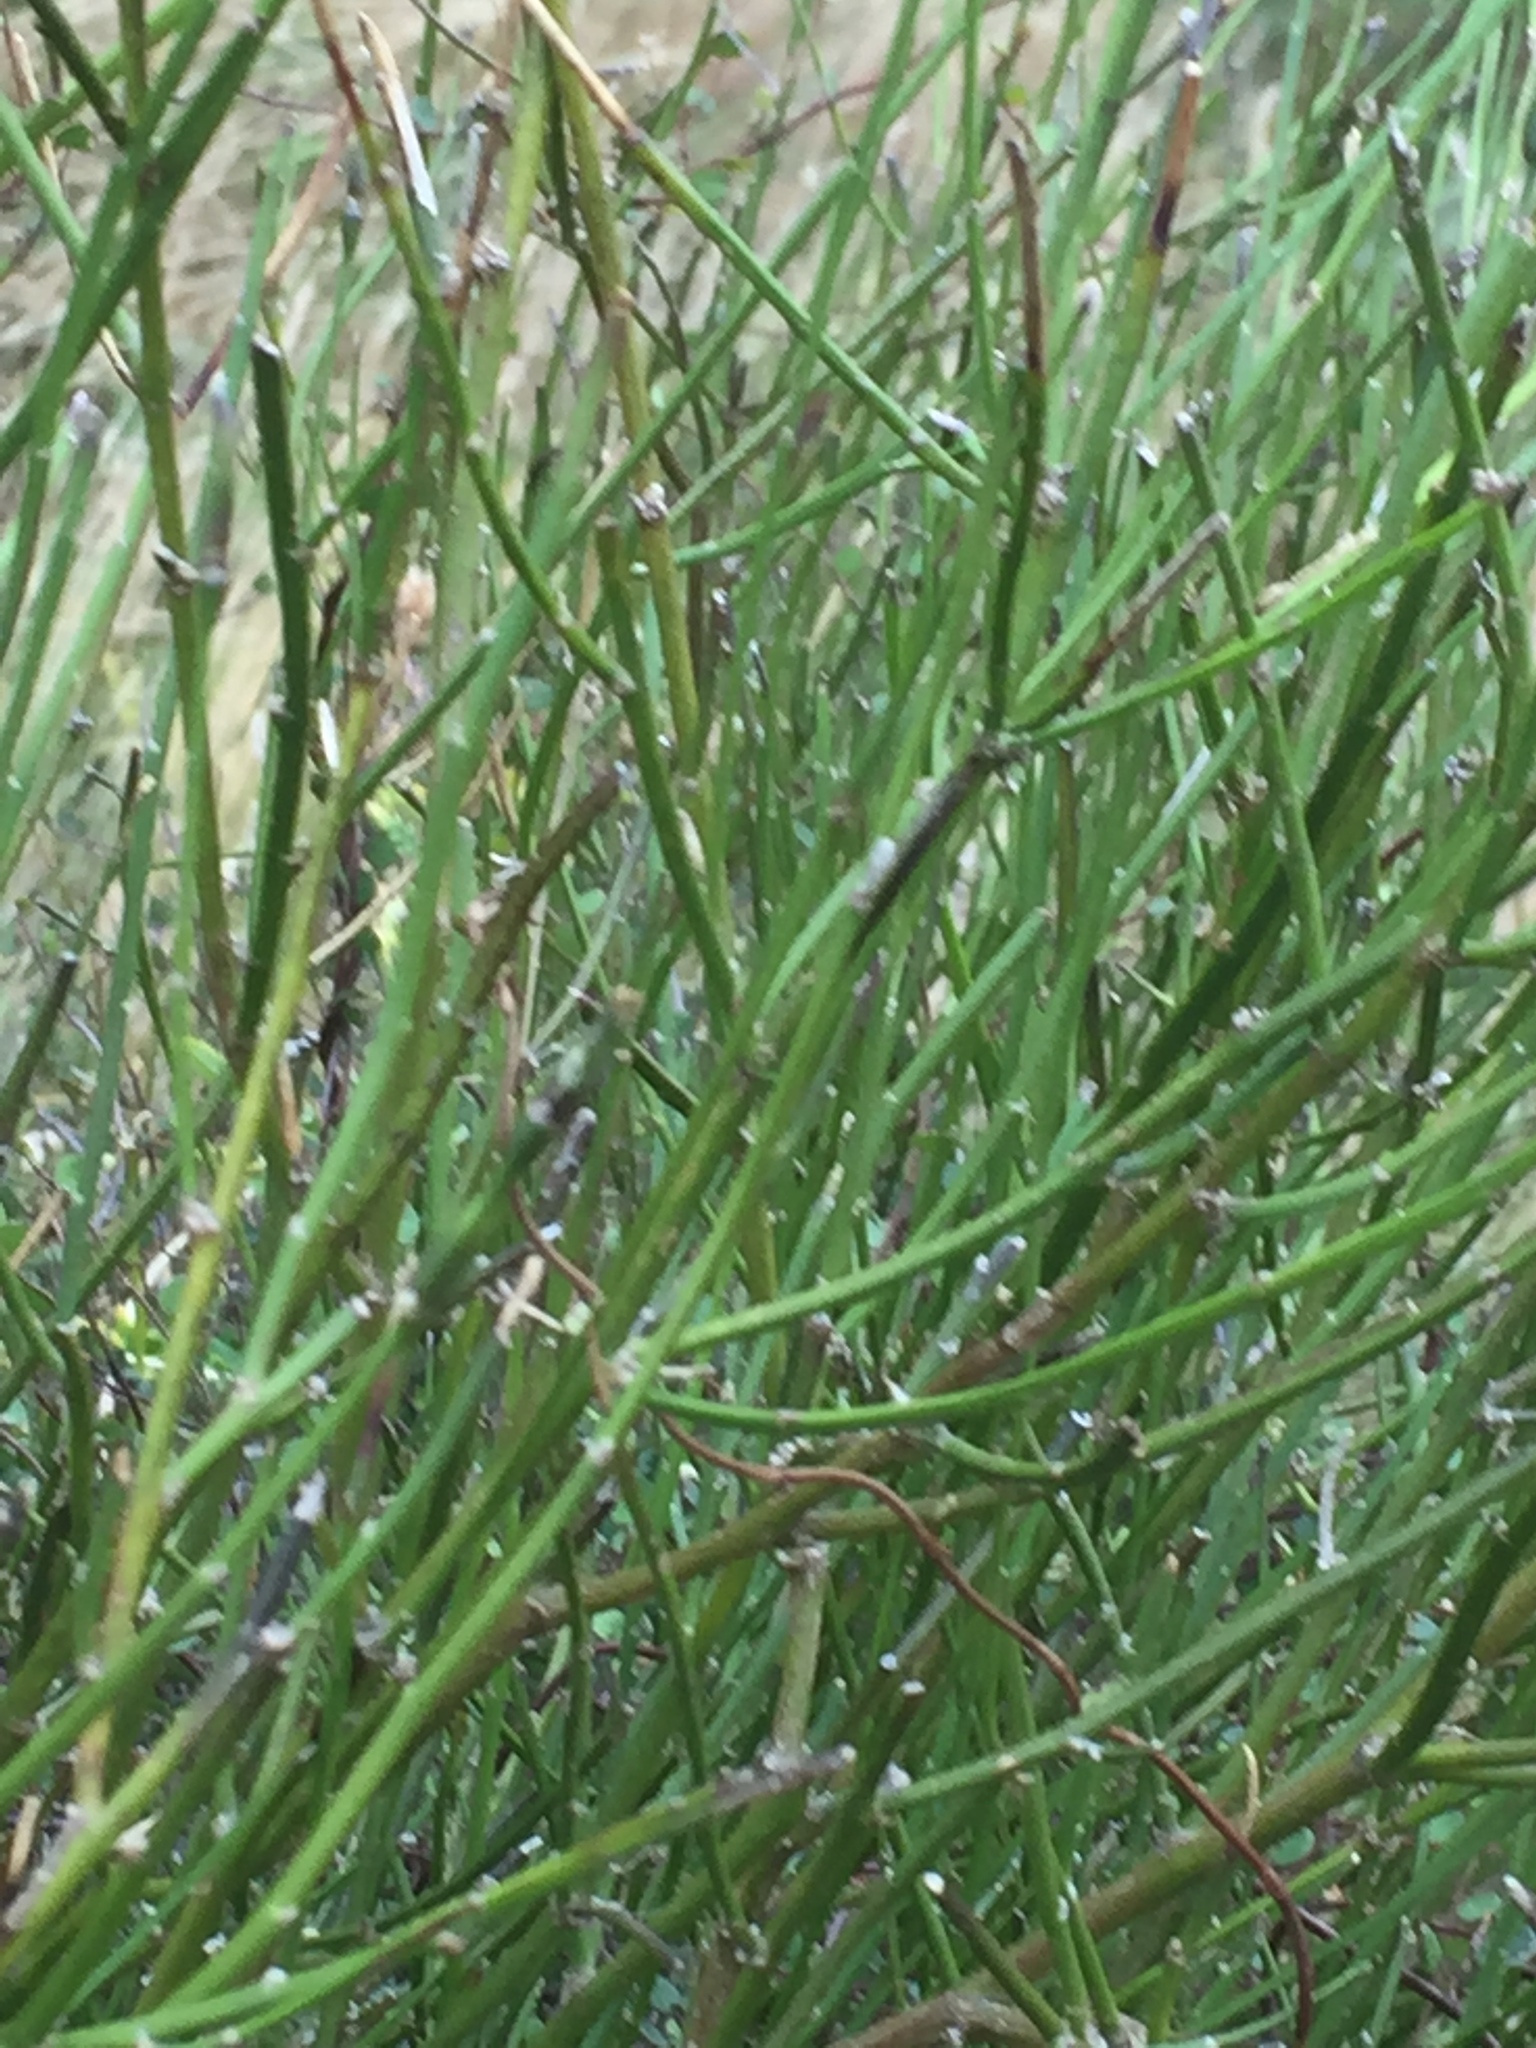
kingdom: Plantae
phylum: Tracheophyta
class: Magnoliopsida
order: Fabales
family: Fabaceae
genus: Carmichaelia
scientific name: Carmichaelia australis
